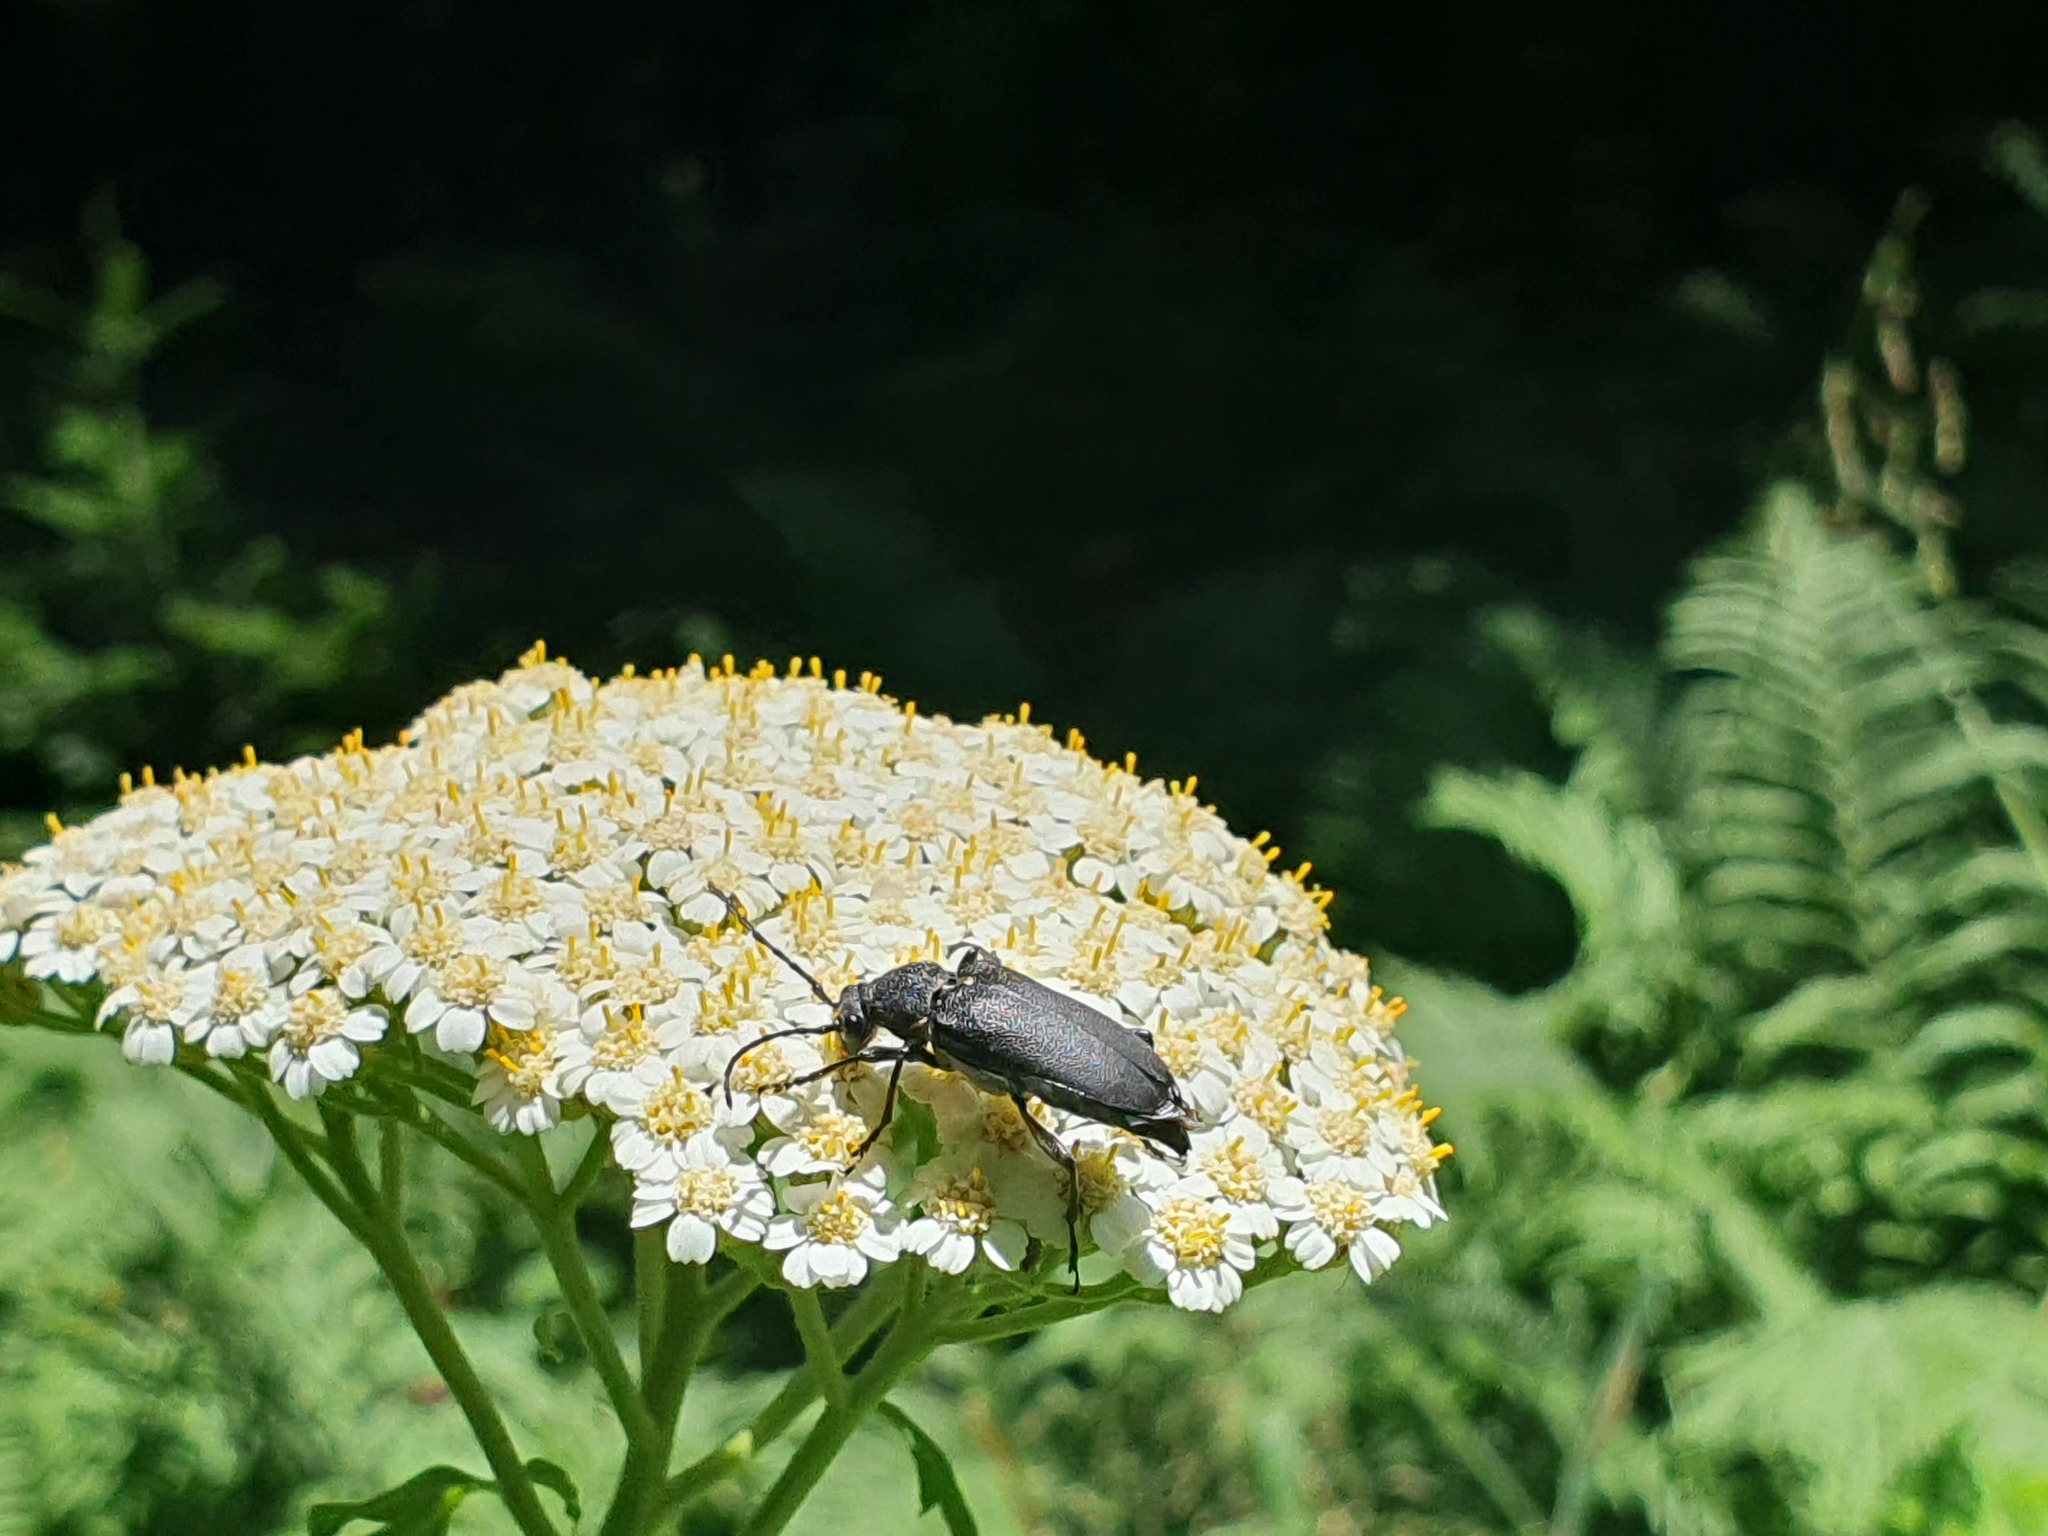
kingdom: Animalia
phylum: Arthropoda
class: Insecta
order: Coleoptera
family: Cerambycidae
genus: Stictoleptura
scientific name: Stictoleptura scutellata
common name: Large black longhorn beetle
